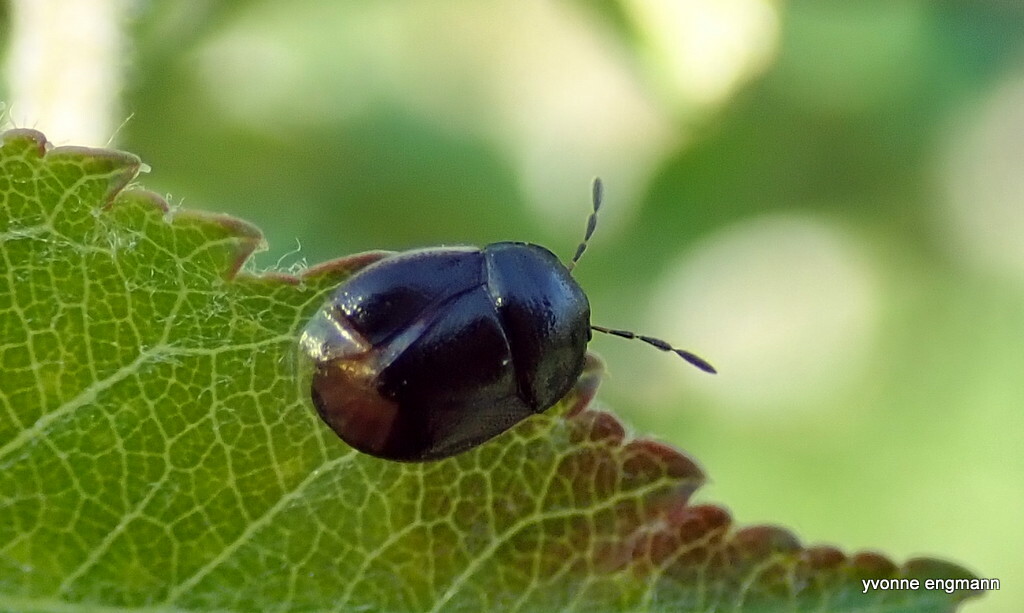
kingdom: Animalia
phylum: Arthropoda
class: Insecta
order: Hemiptera
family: Cydnidae
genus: Legnotus
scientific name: Legnotus limbosus
